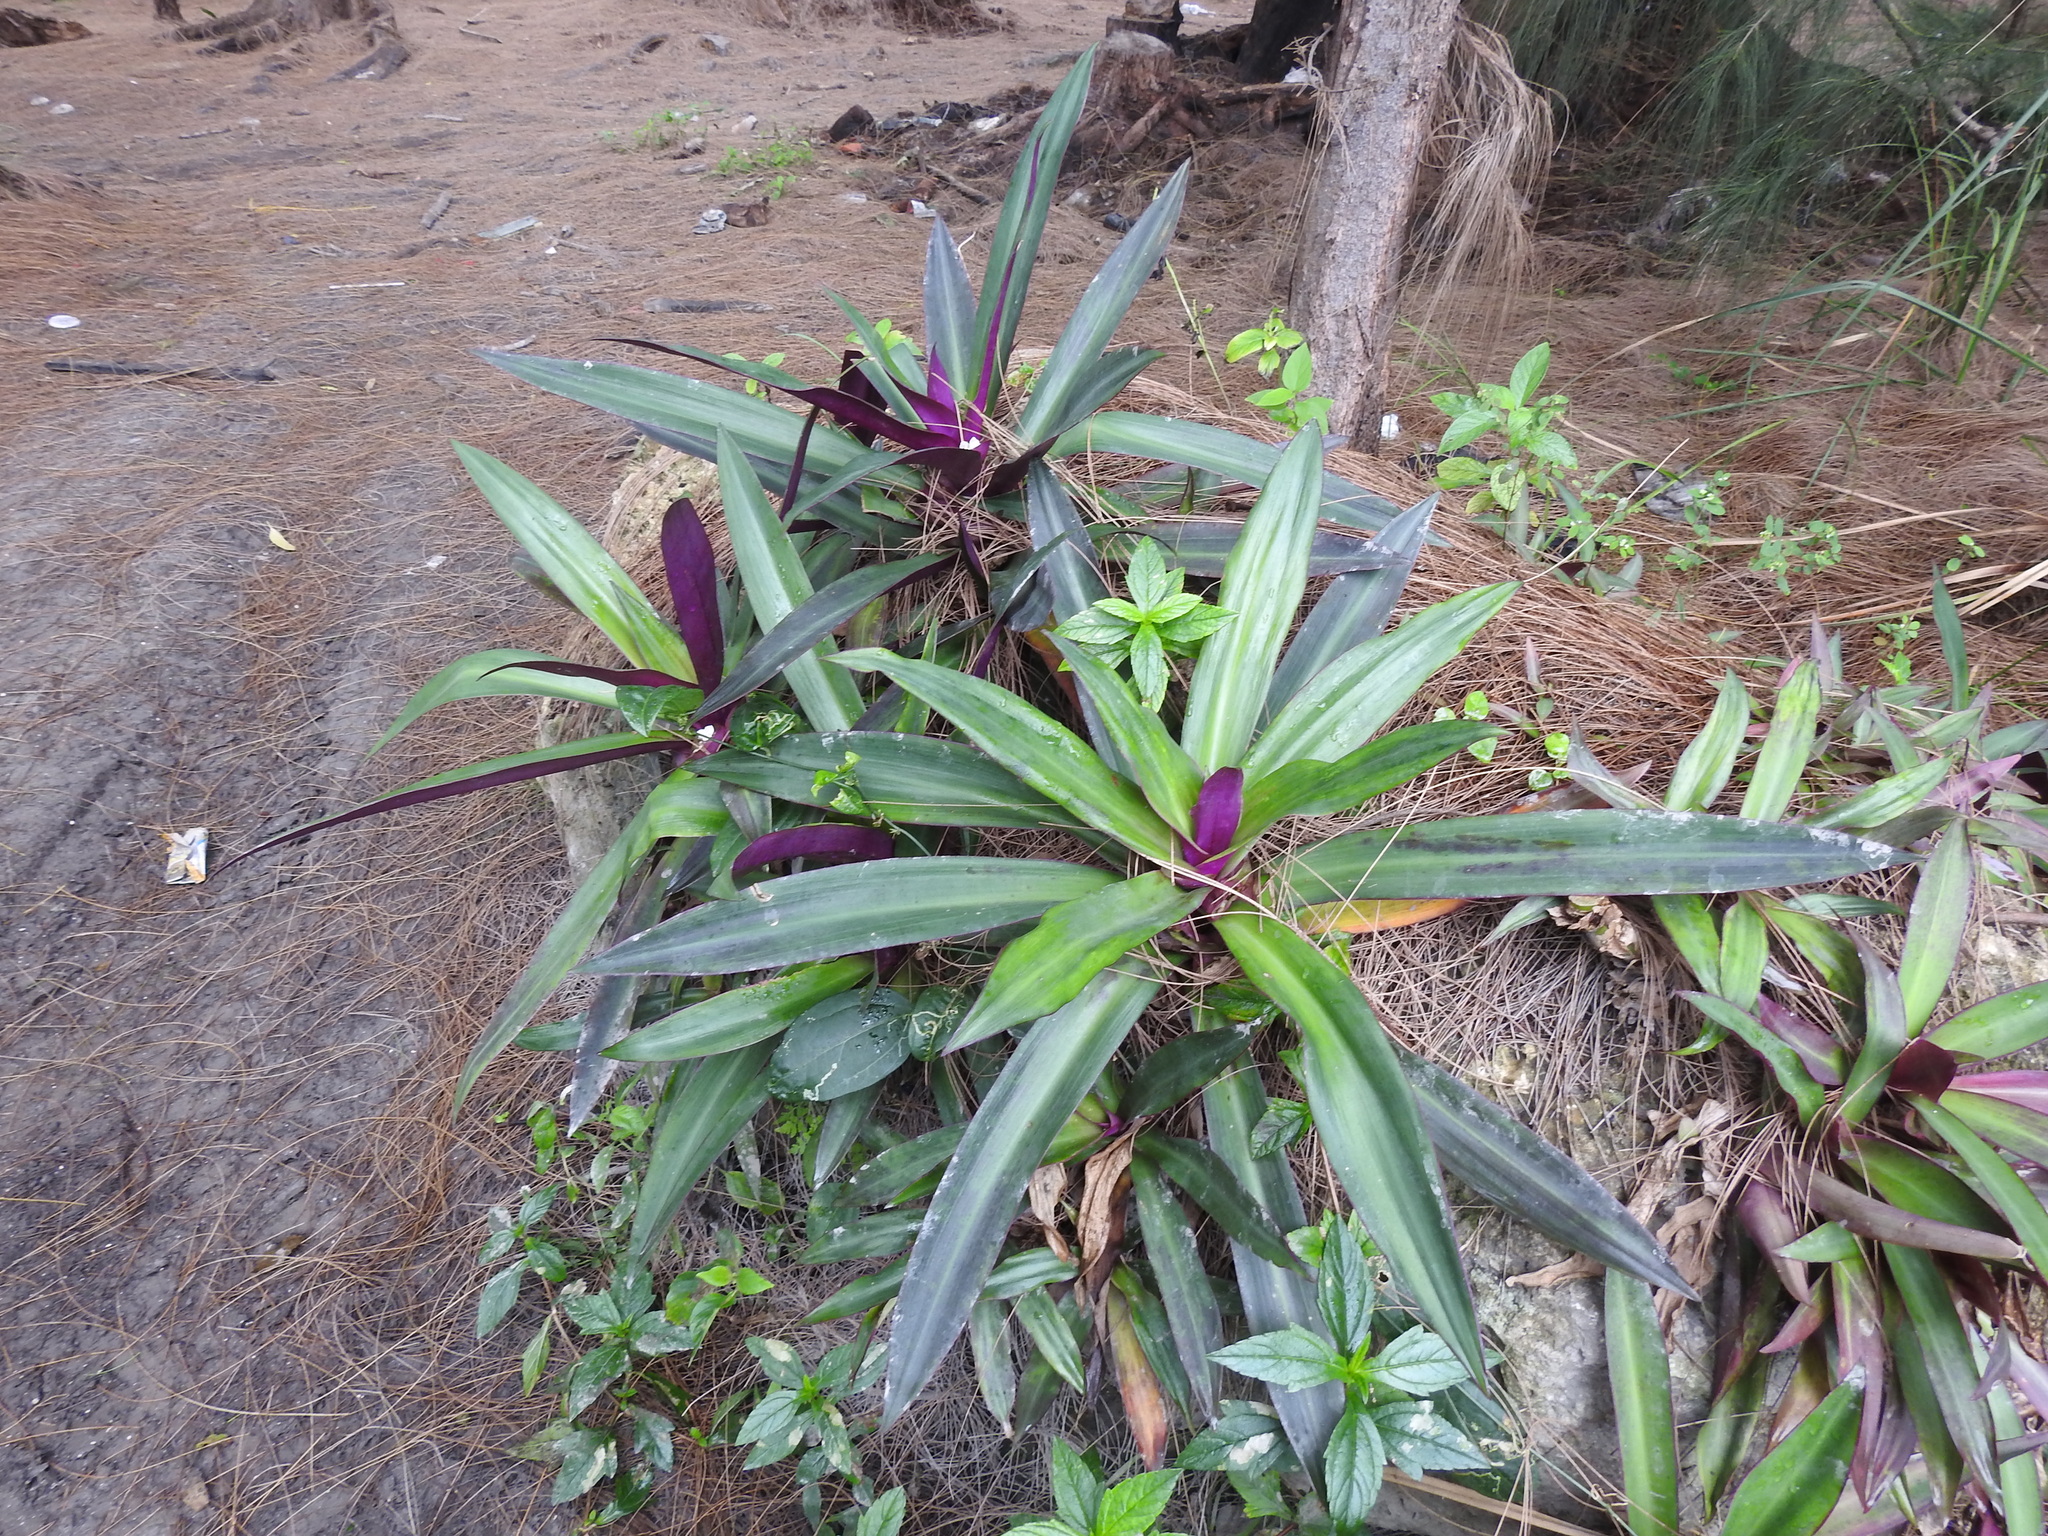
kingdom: Plantae
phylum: Tracheophyta
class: Liliopsida
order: Commelinales
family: Commelinaceae
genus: Tradescantia
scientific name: Tradescantia spathacea
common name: Boatlily
